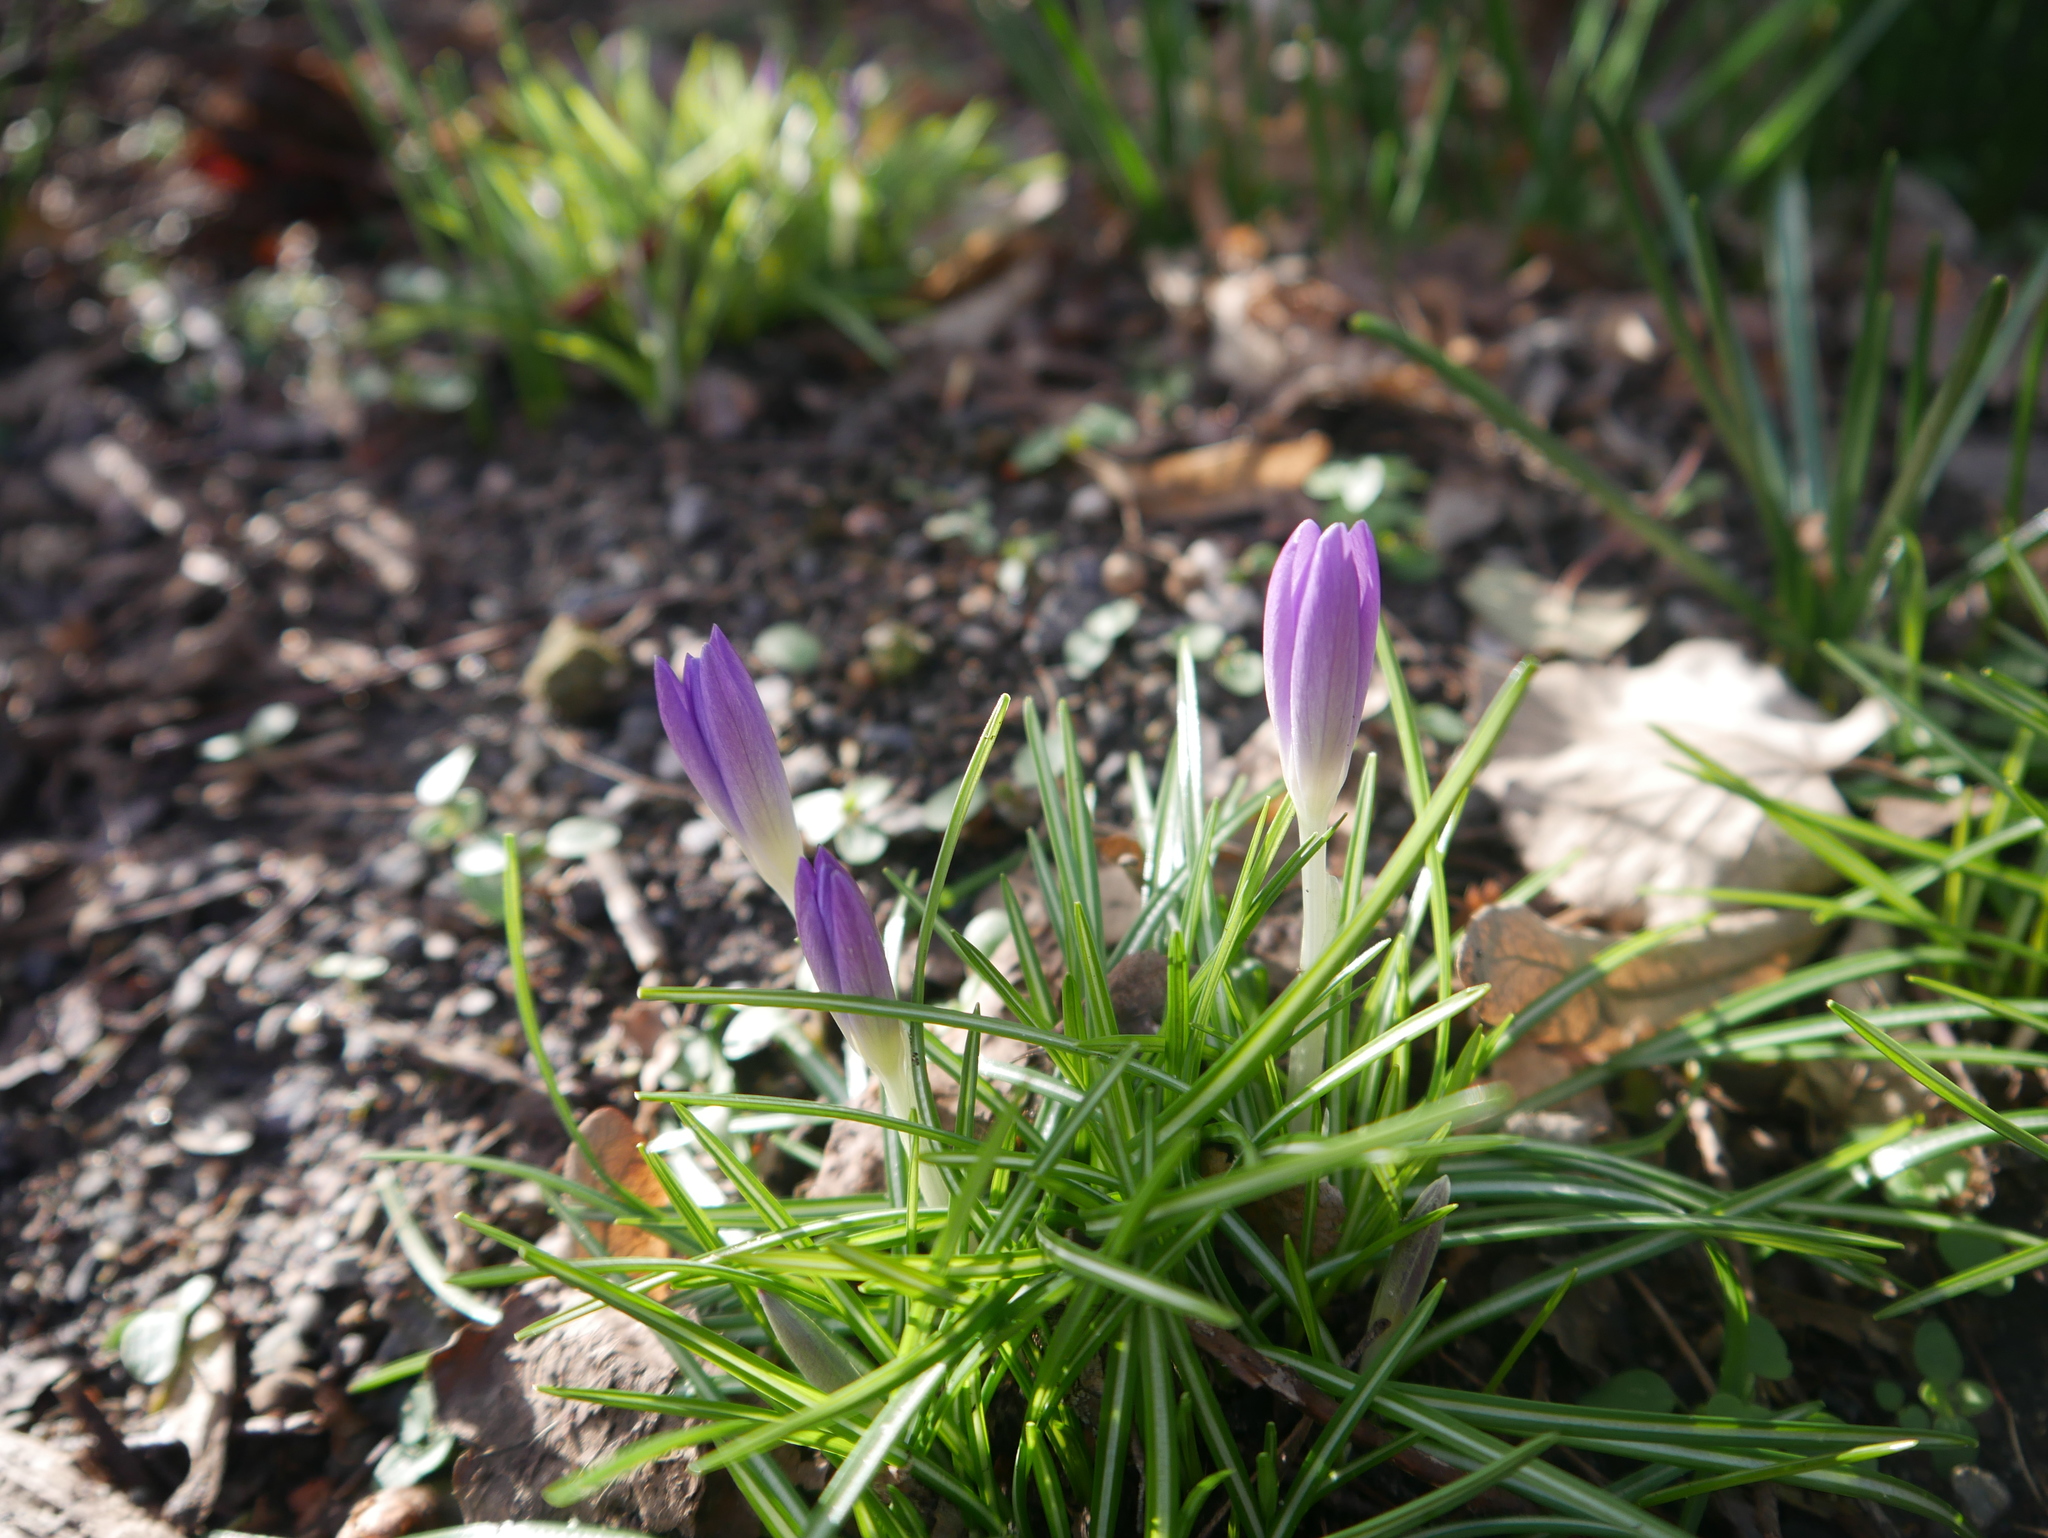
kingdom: Plantae
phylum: Tracheophyta
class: Liliopsida
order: Asparagales
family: Iridaceae
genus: Crocus
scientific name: Crocus tommasinianus
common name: Early crocus
